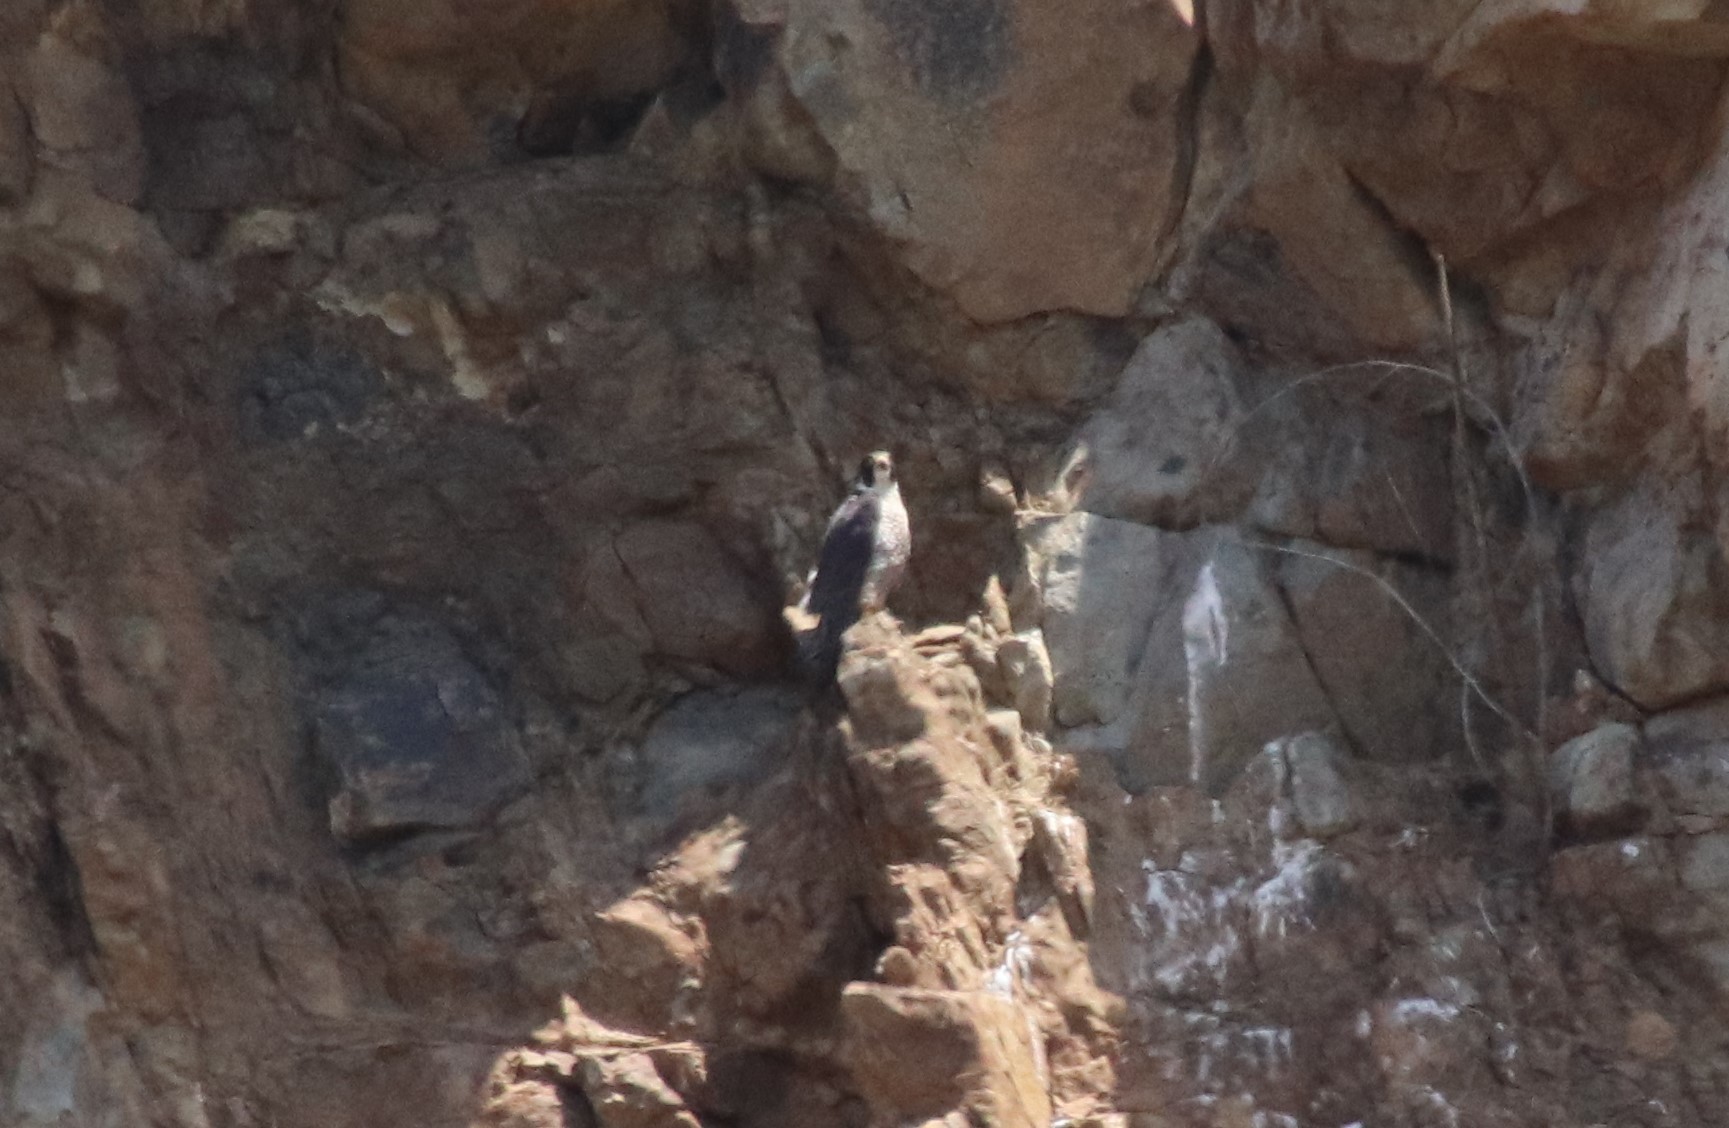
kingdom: Animalia
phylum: Chordata
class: Aves
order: Falconiformes
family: Falconidae
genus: Falco
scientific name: Falco peregrinus
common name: Peregrine falcon
